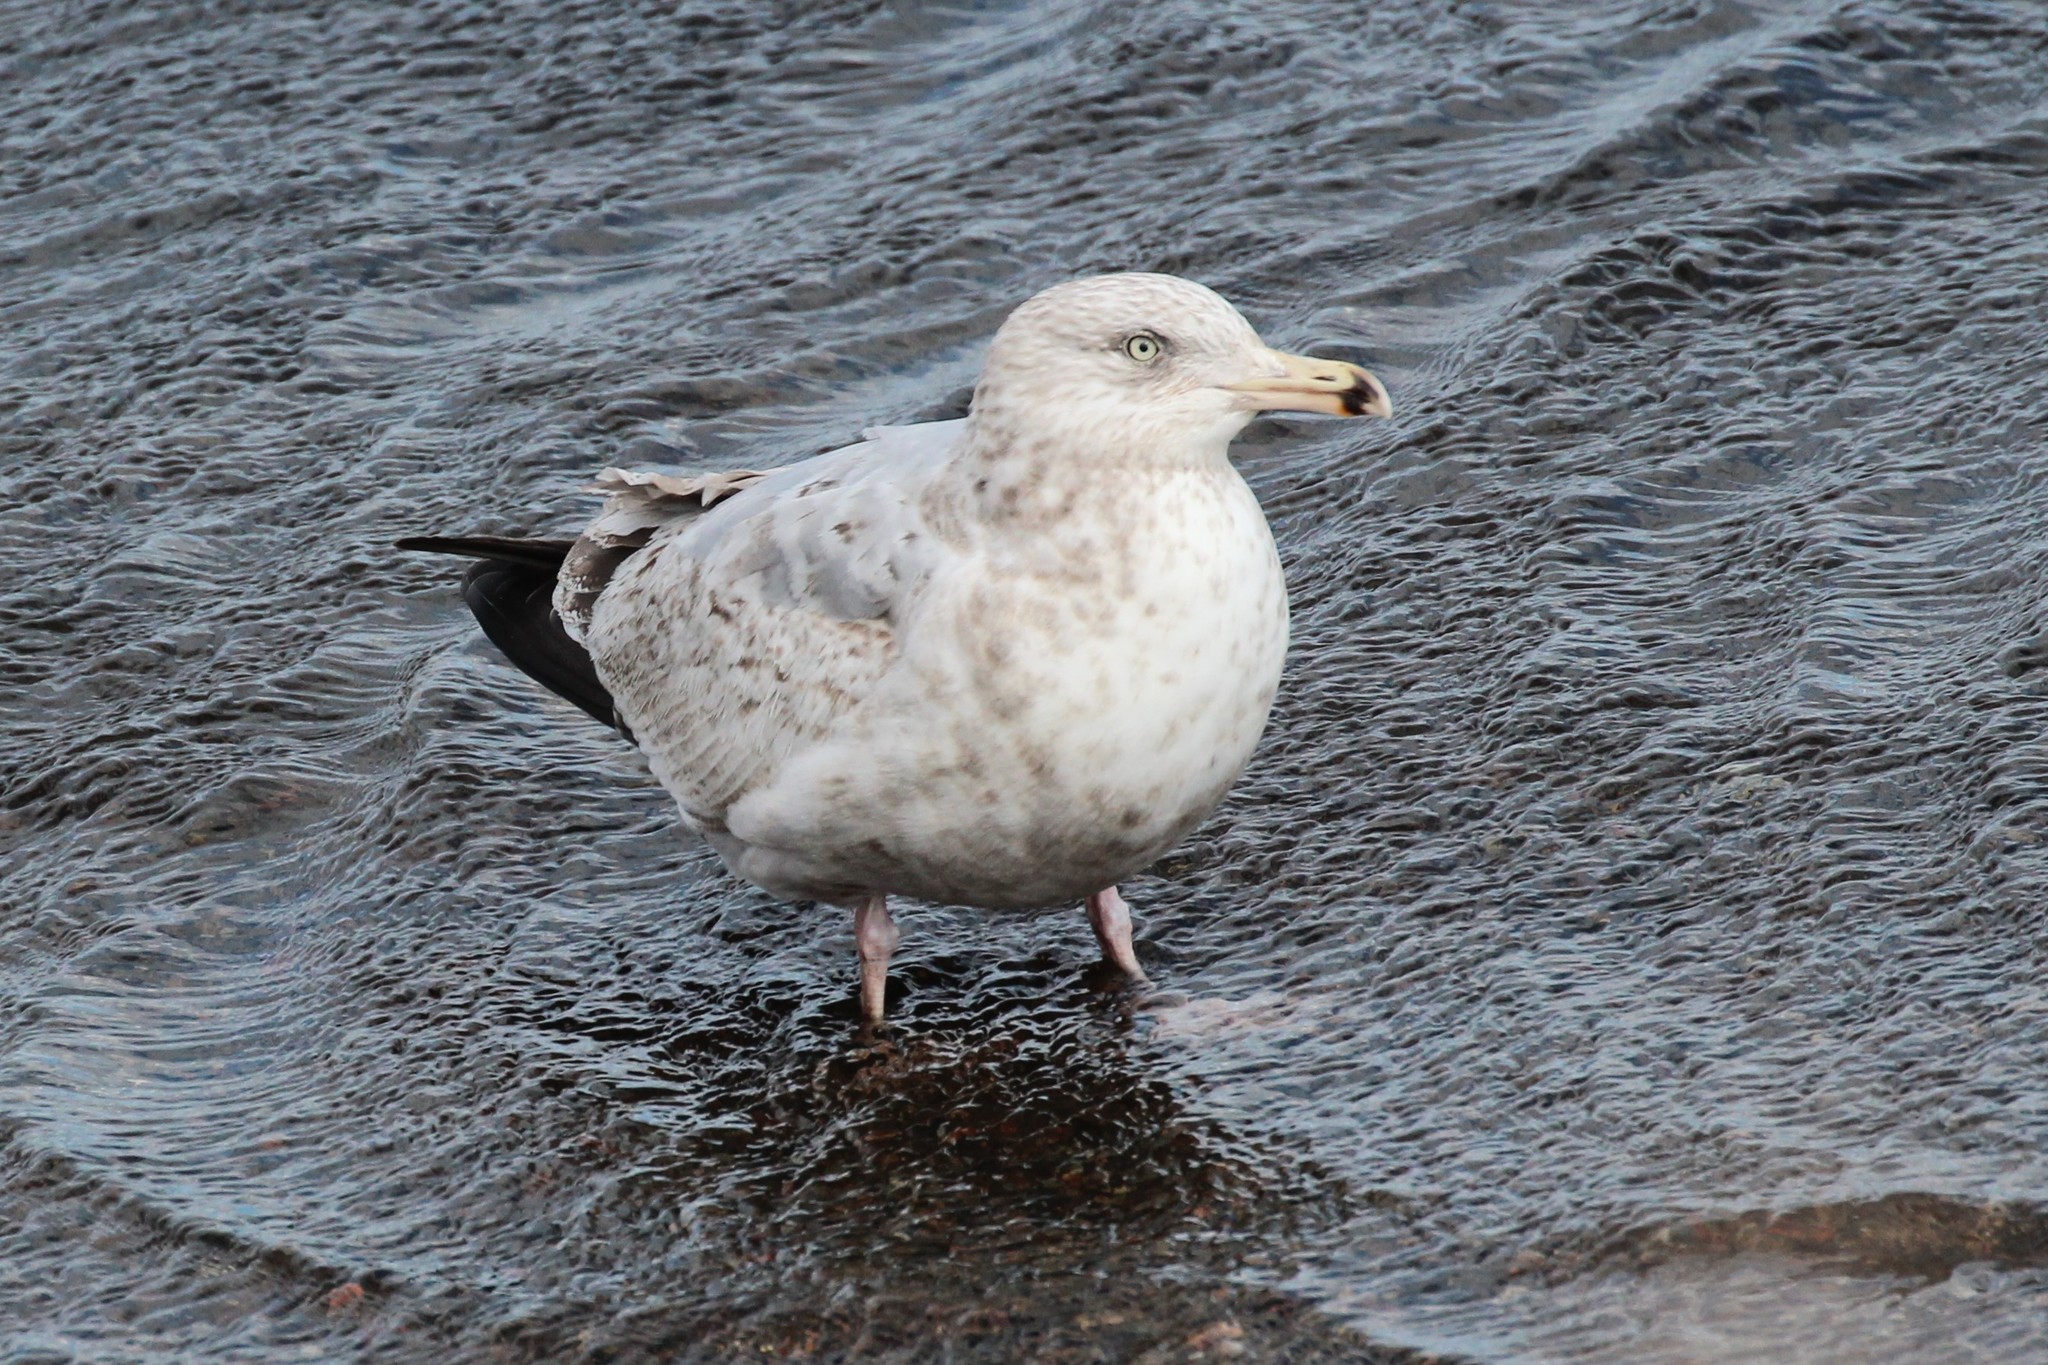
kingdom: Animalia
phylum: Chordata
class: Aves
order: Charadriiformes
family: Laridae
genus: Larus
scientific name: Larus argentatus
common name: Herring gull
